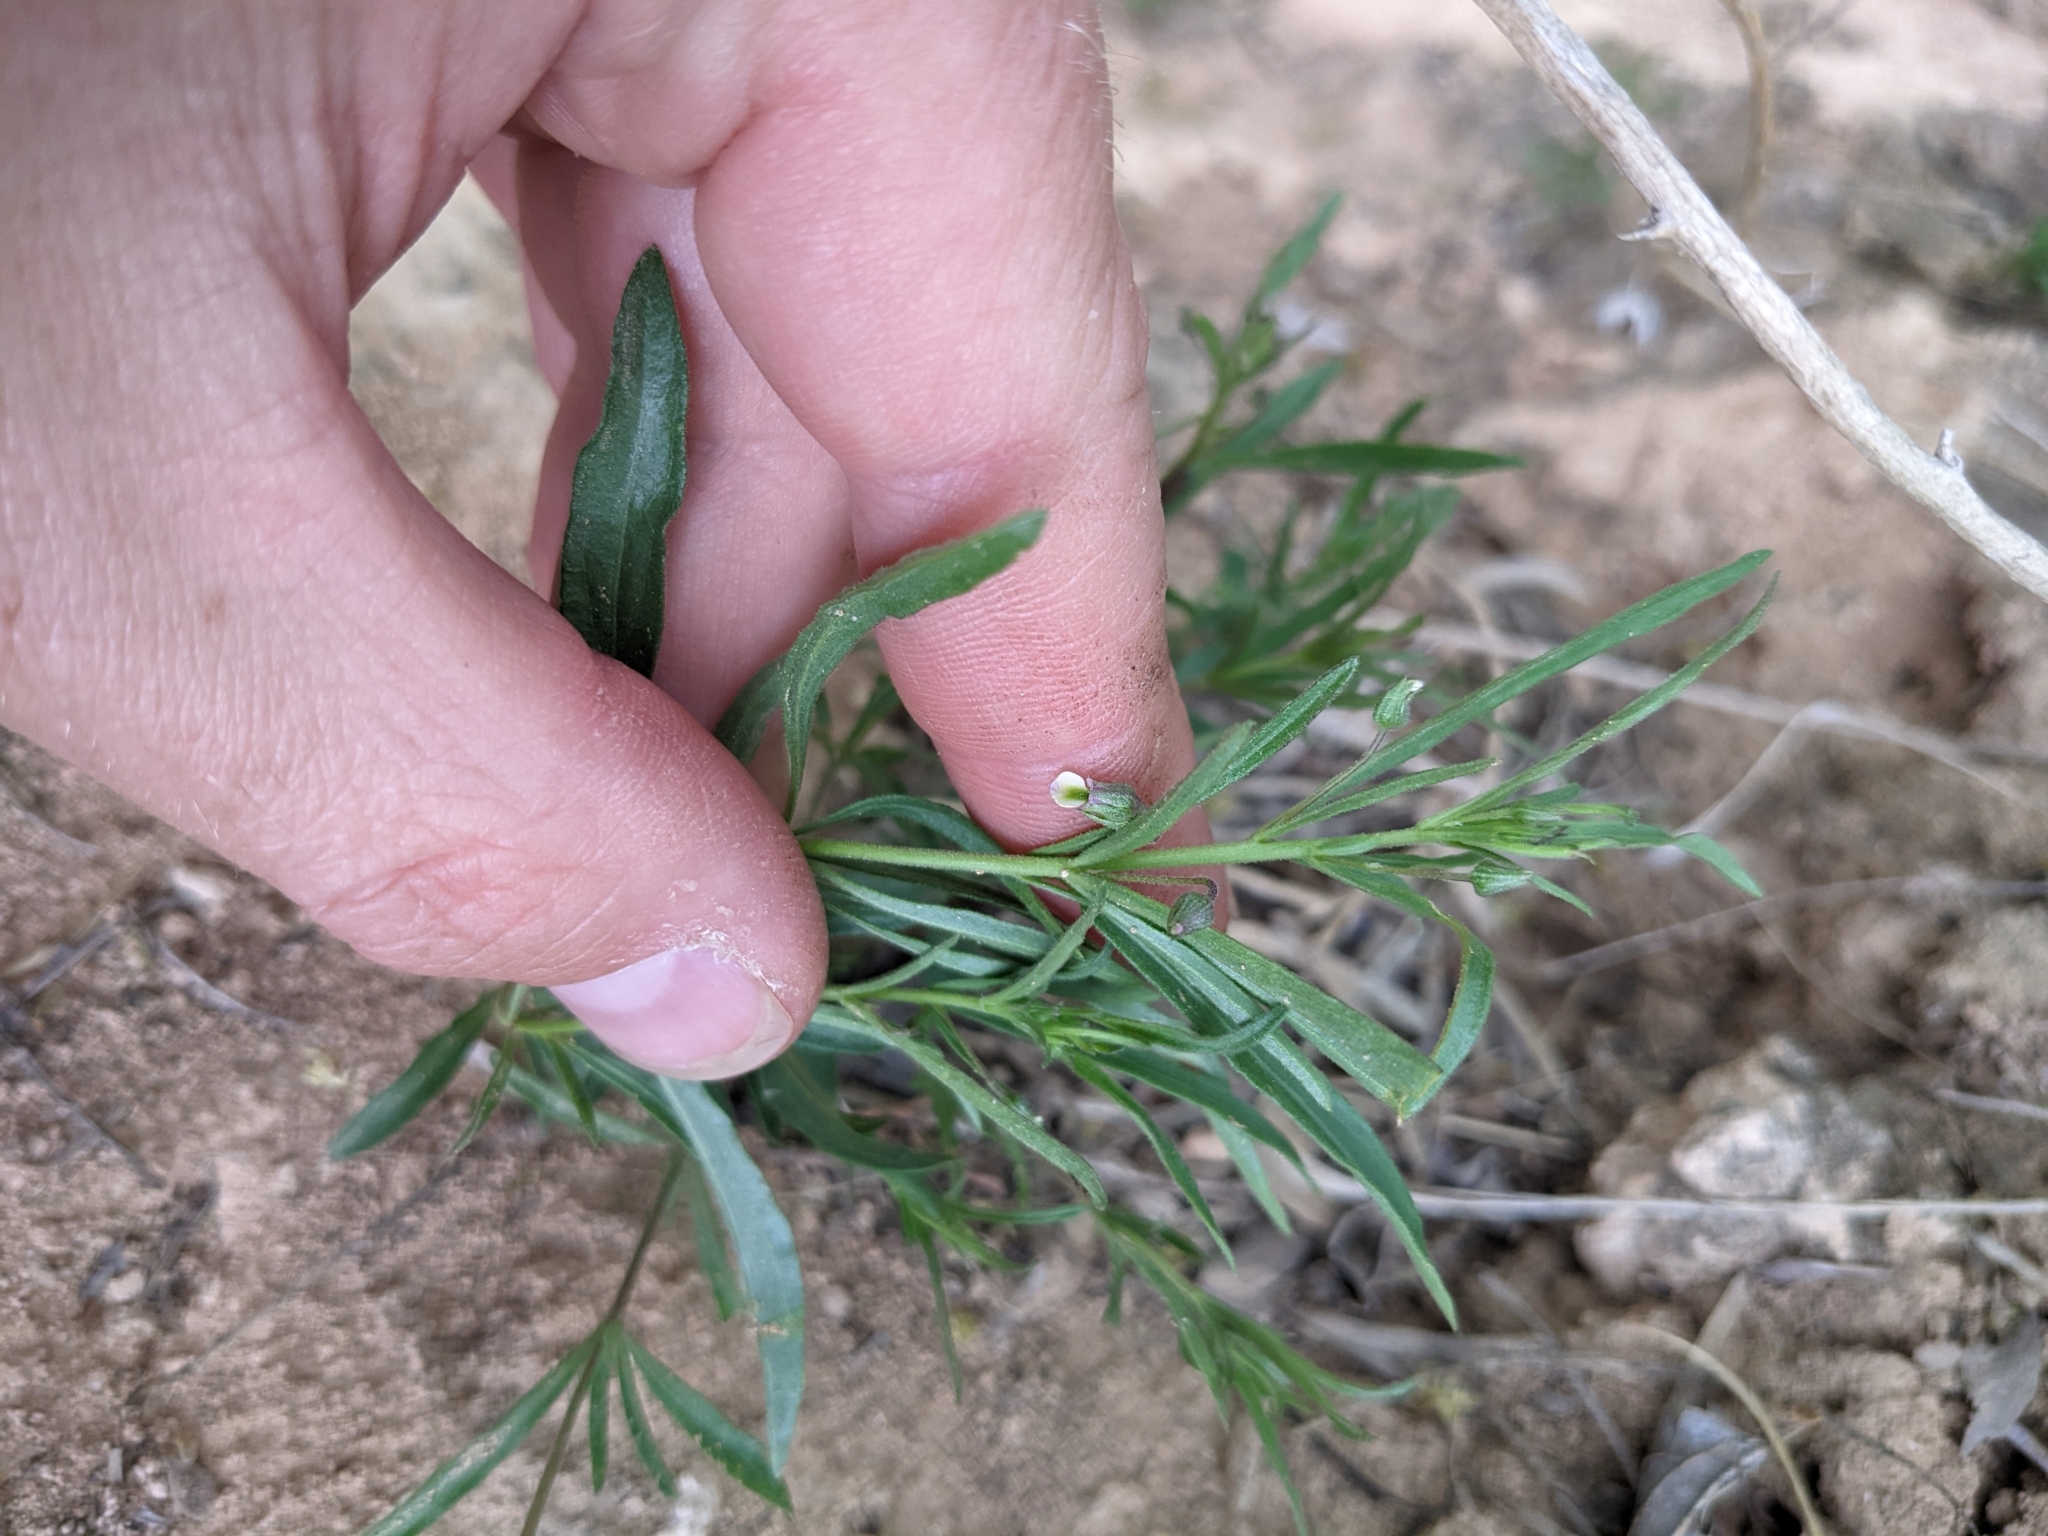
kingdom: Plantae
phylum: Tracheophyta
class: Magnoliopsida
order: Malpighiales
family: Violaceae
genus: Pombalia
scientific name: Pombalia verticillata
